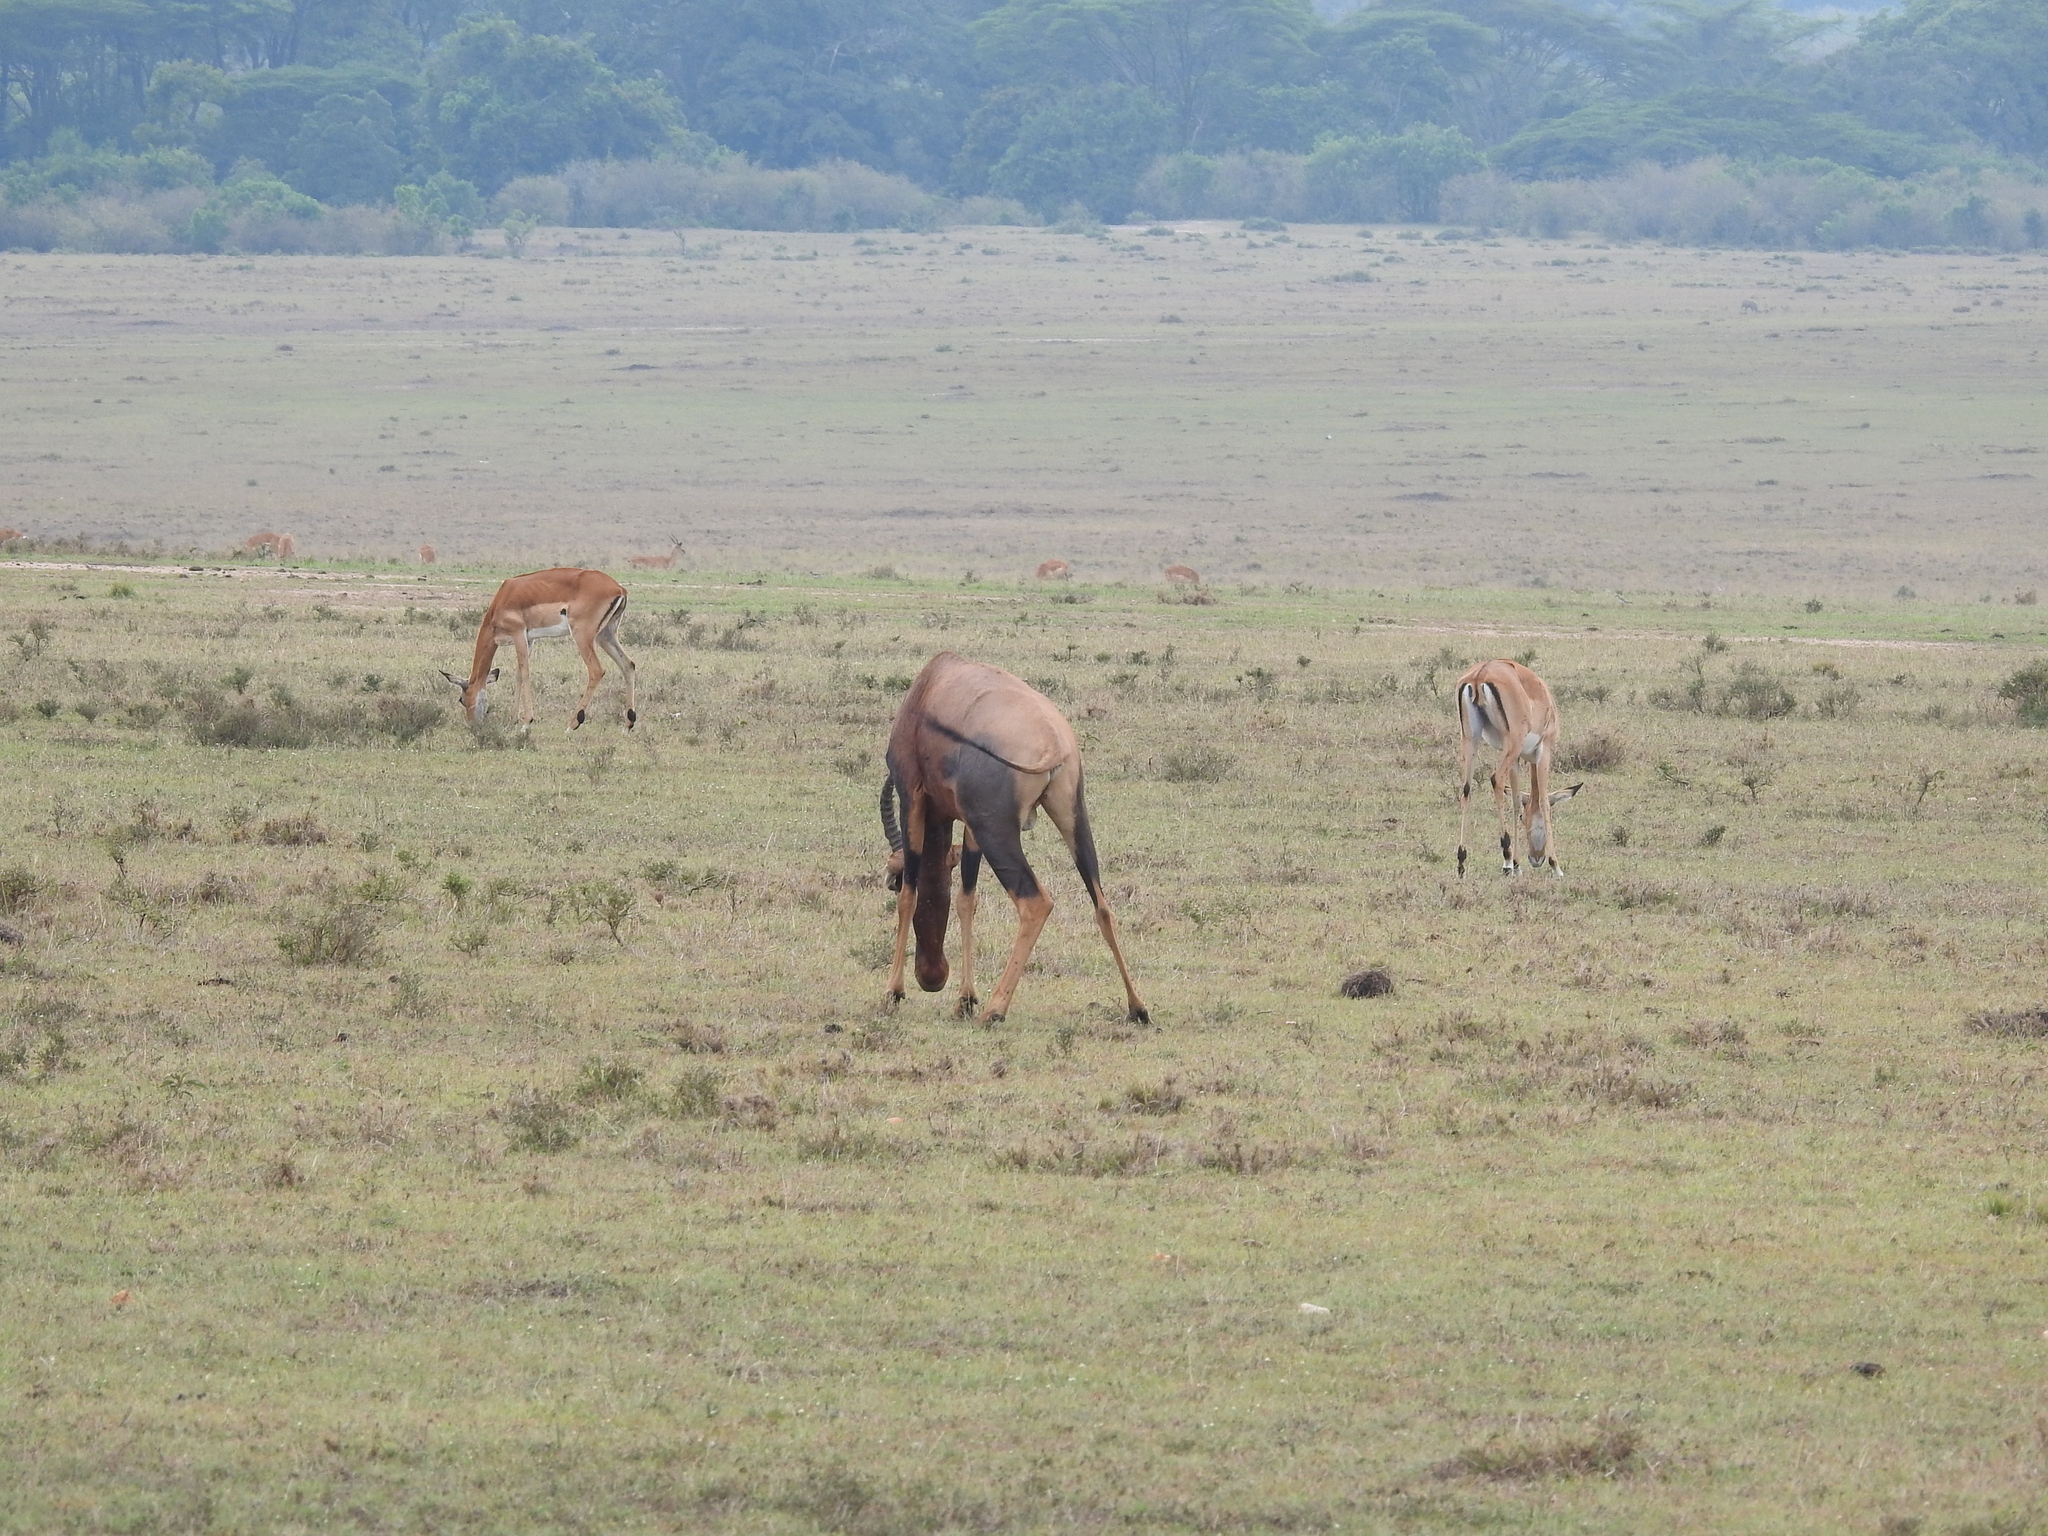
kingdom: Animalia
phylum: Chordata
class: Mammalia
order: Artiodactyla
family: Bovidae
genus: Aepyceros
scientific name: Aepyceros melampus
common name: Impala
